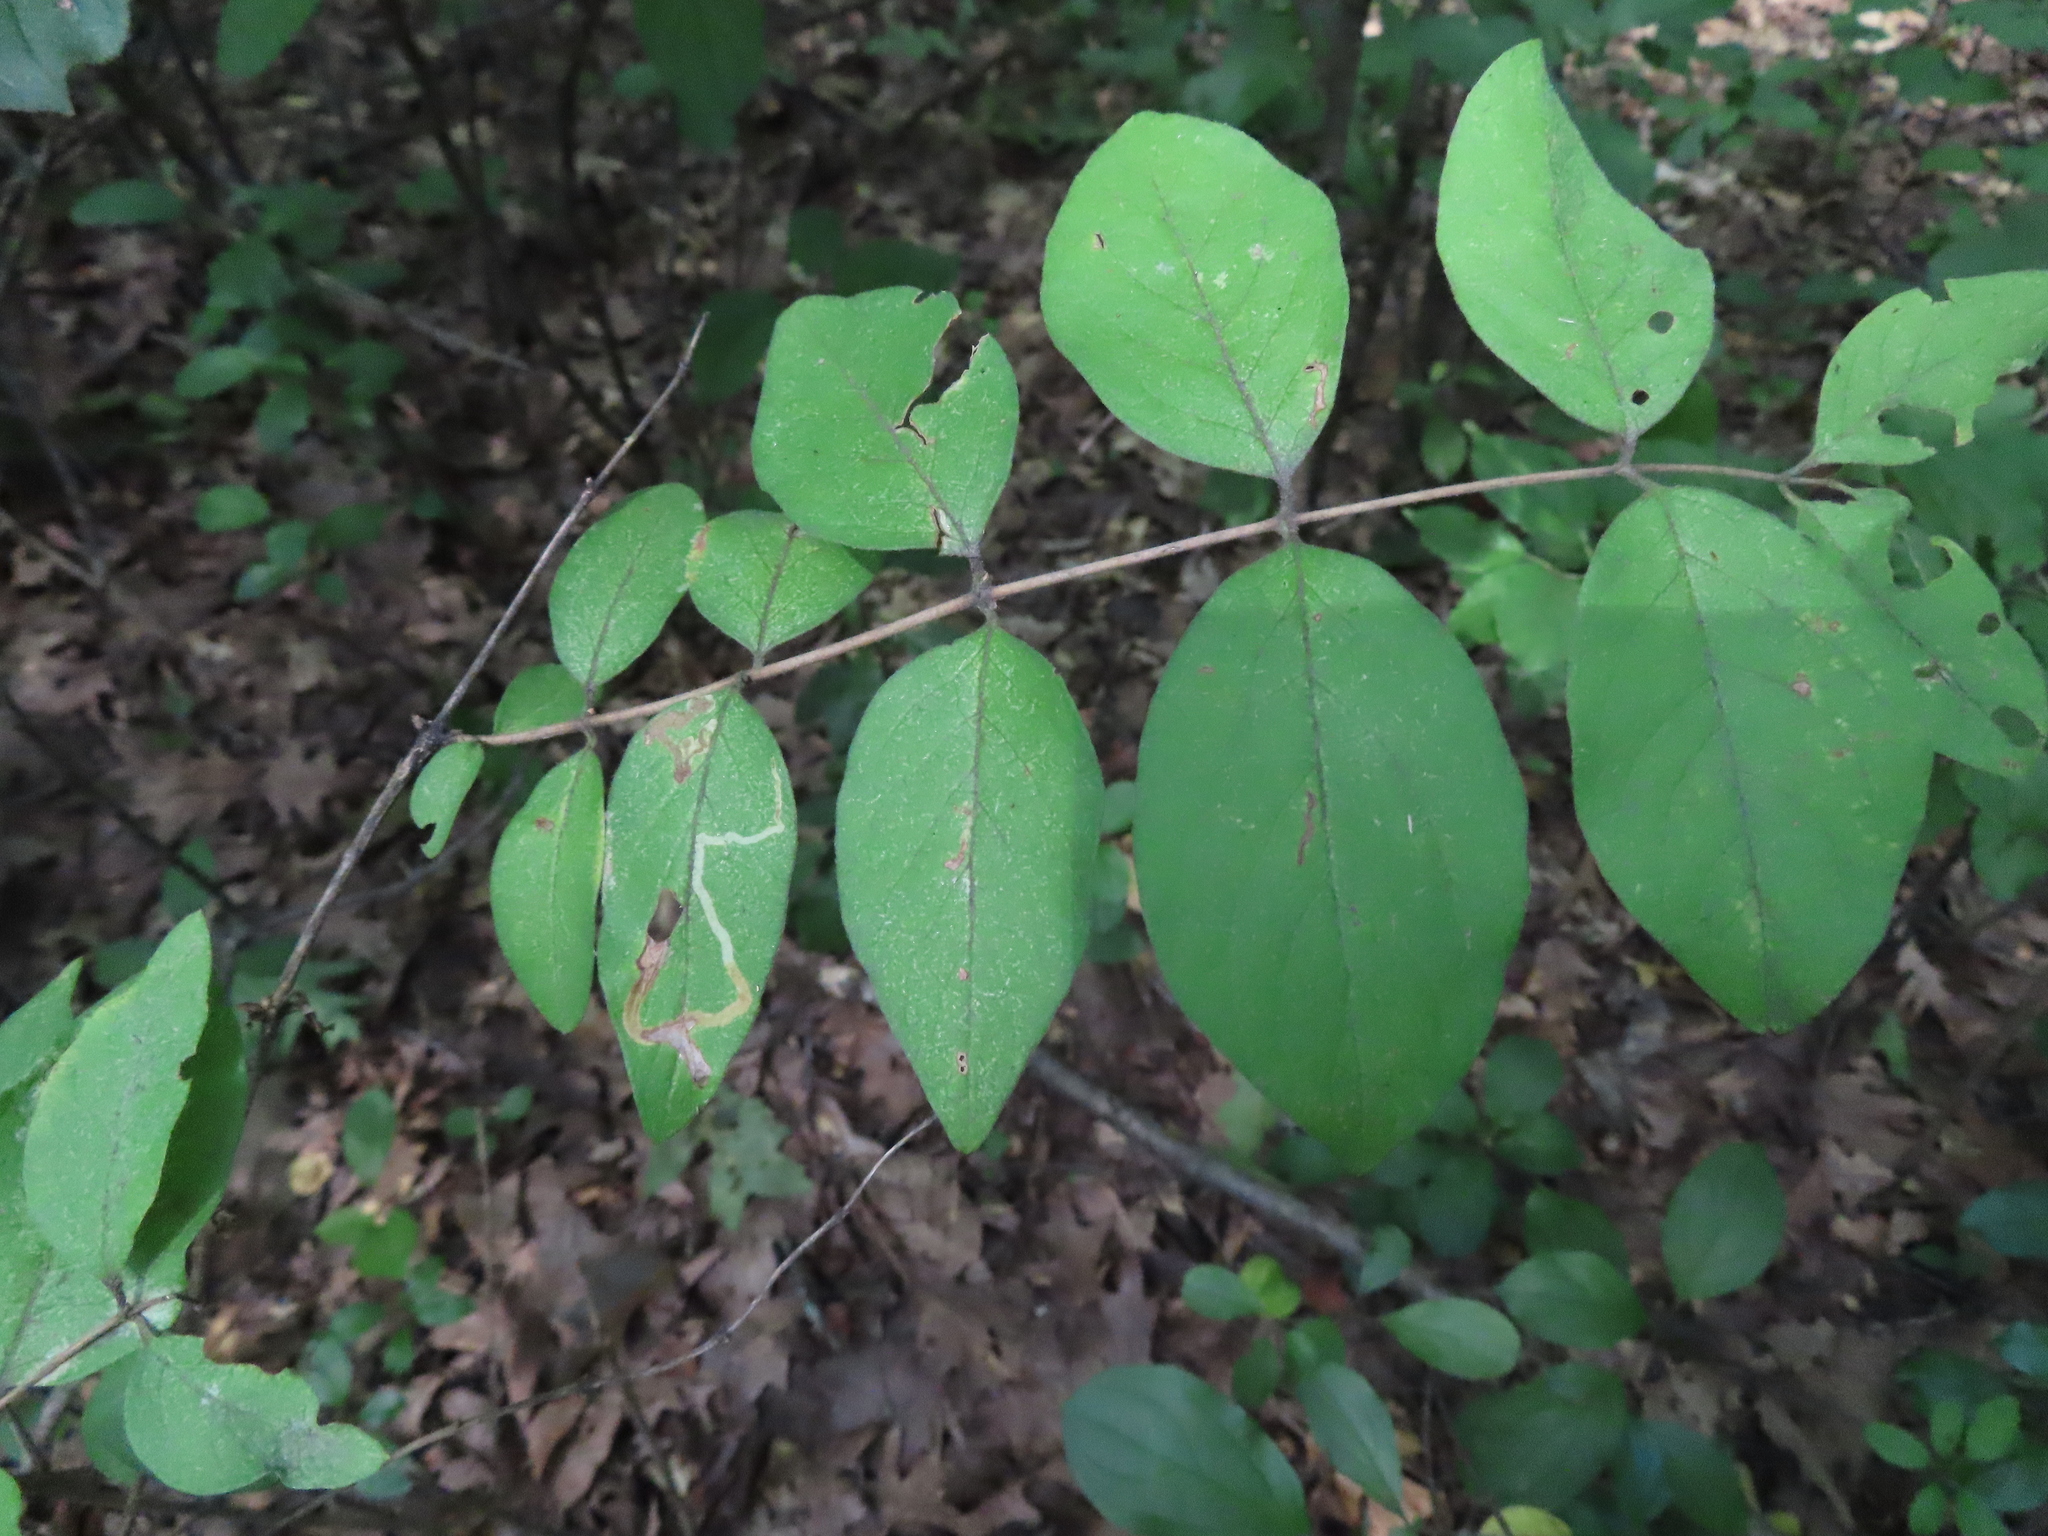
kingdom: Animalia
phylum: Arthropoda
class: Insecta
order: Diptera
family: Agromyzidae
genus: Aulagromyza
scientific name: Aulagromyza luteoscutellata
